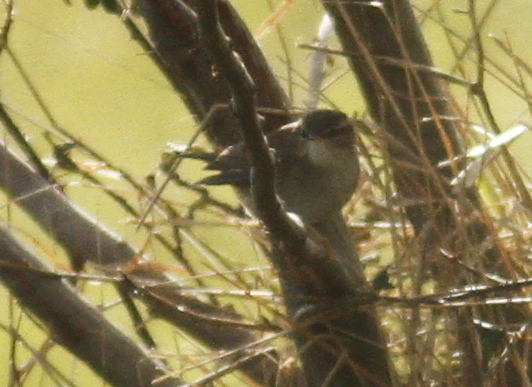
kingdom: Animalia
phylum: Chordata
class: Aves
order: Passeriformes
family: Phylloscopidae
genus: Phylloscopus
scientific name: Phylloscopus fuscatus
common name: Dusky warbler
